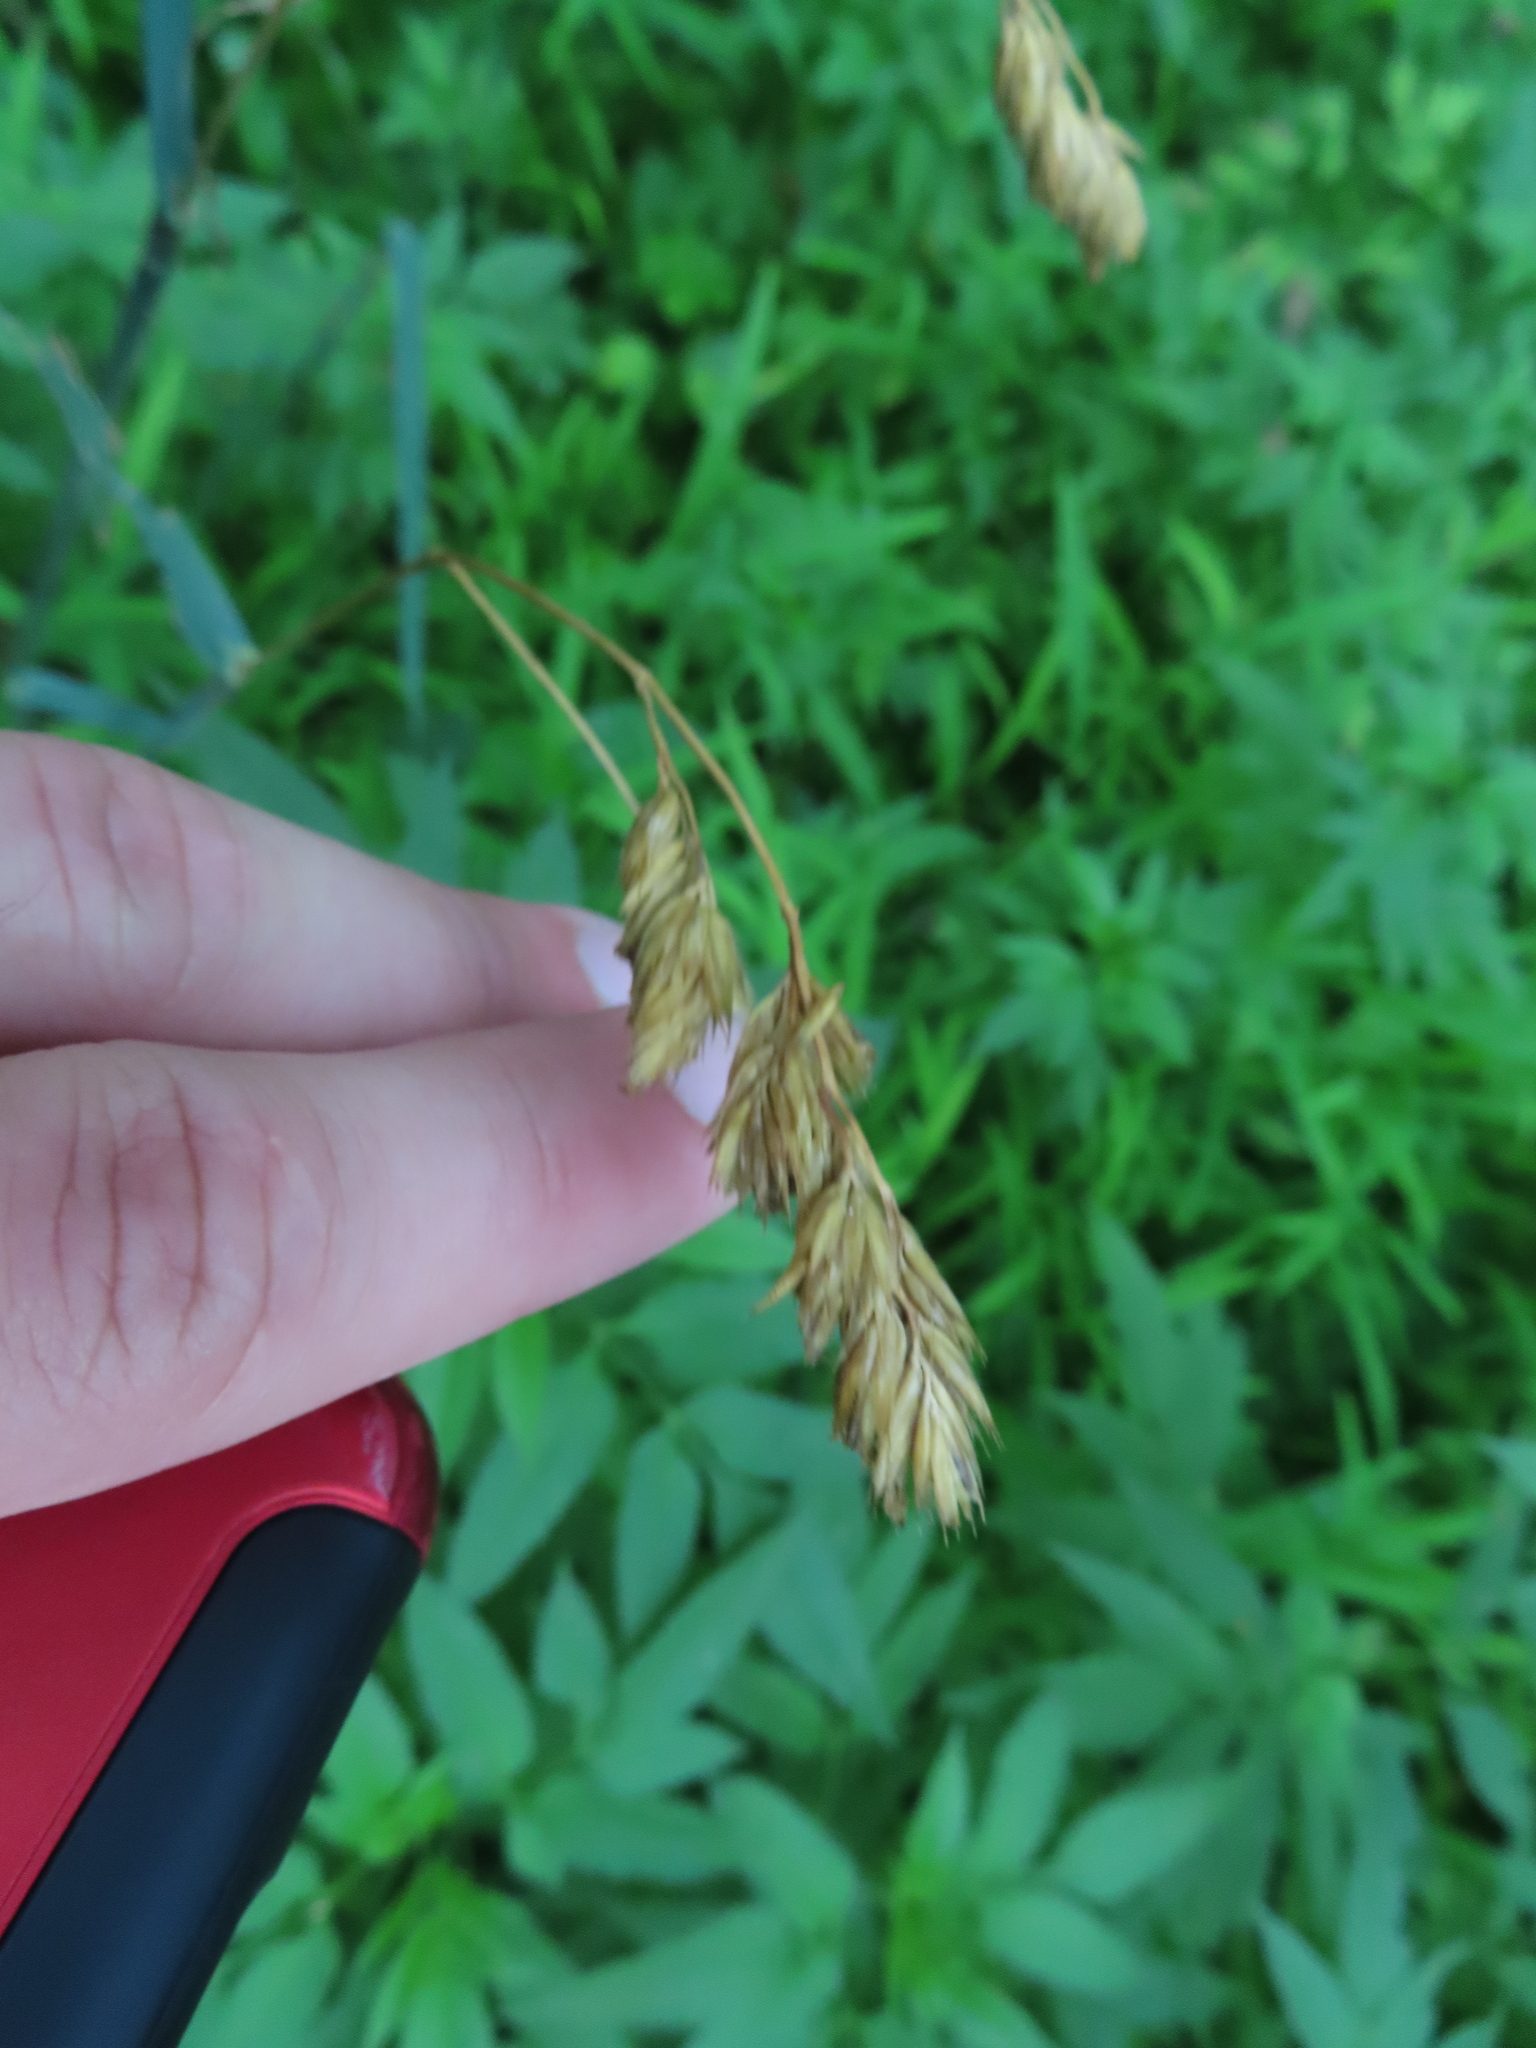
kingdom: Plantae
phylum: Tracheophyta
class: Liliopsida
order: Poales
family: Poaceae
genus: Dactylis
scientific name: Dactylis glomerata
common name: Orchardgrass
